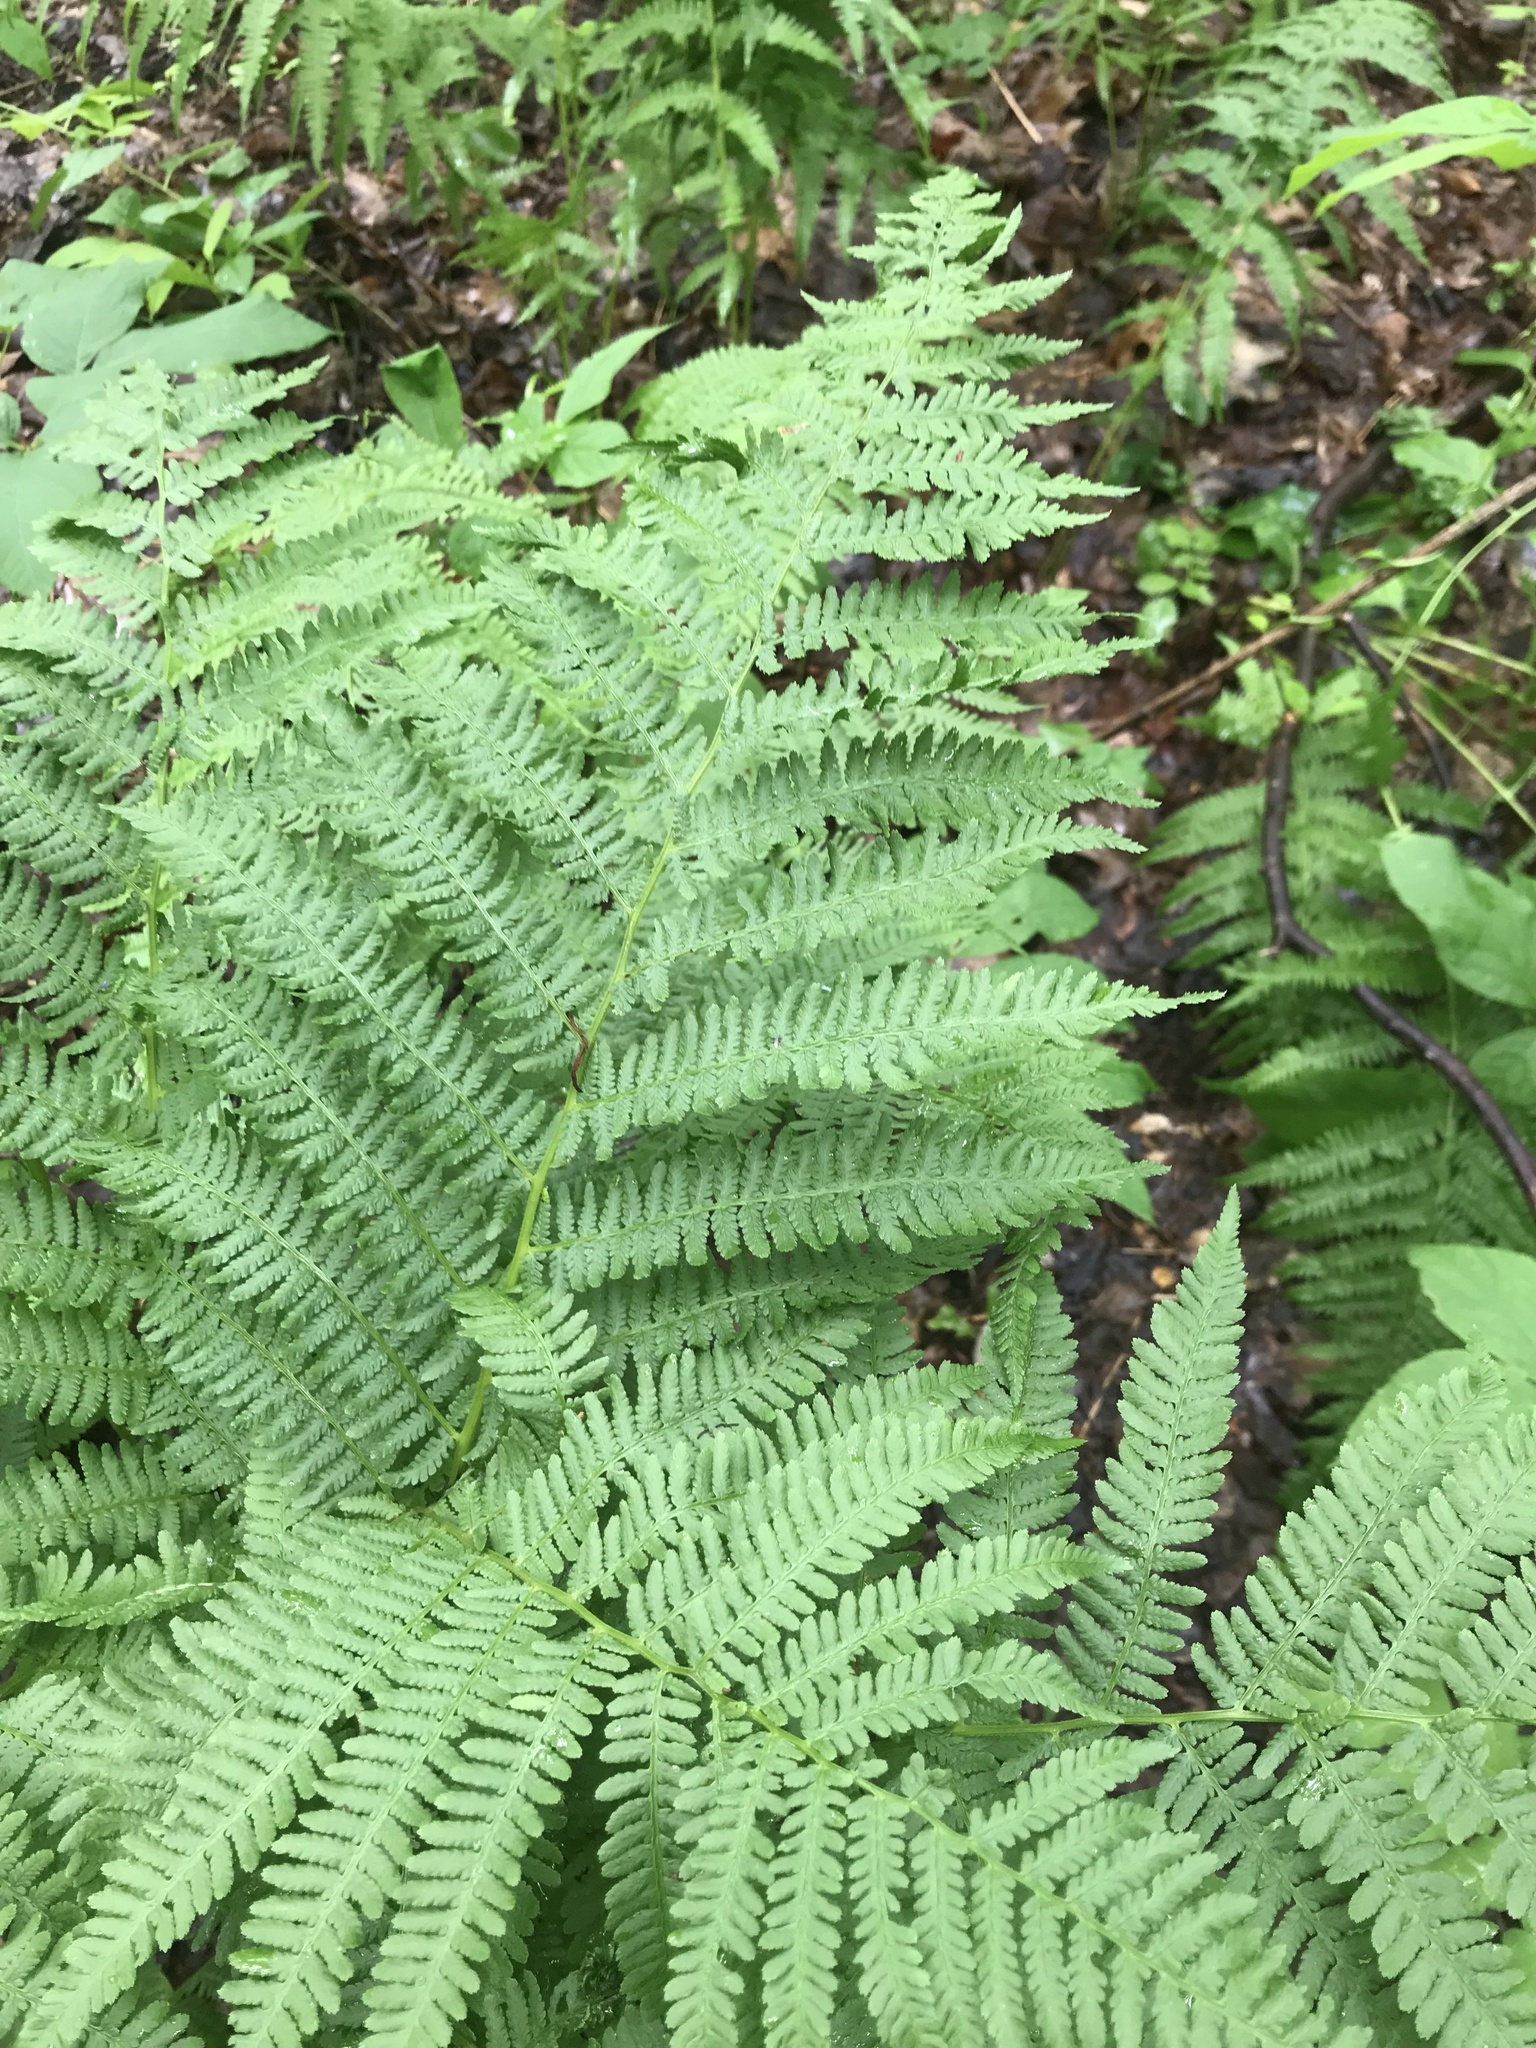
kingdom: Plantae
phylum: Tracheophyta
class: Polypodiopsida
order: Polypodiales
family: Athyriaceae
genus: Athyrium
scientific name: Athyrium angustum
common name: Northern lady fern
